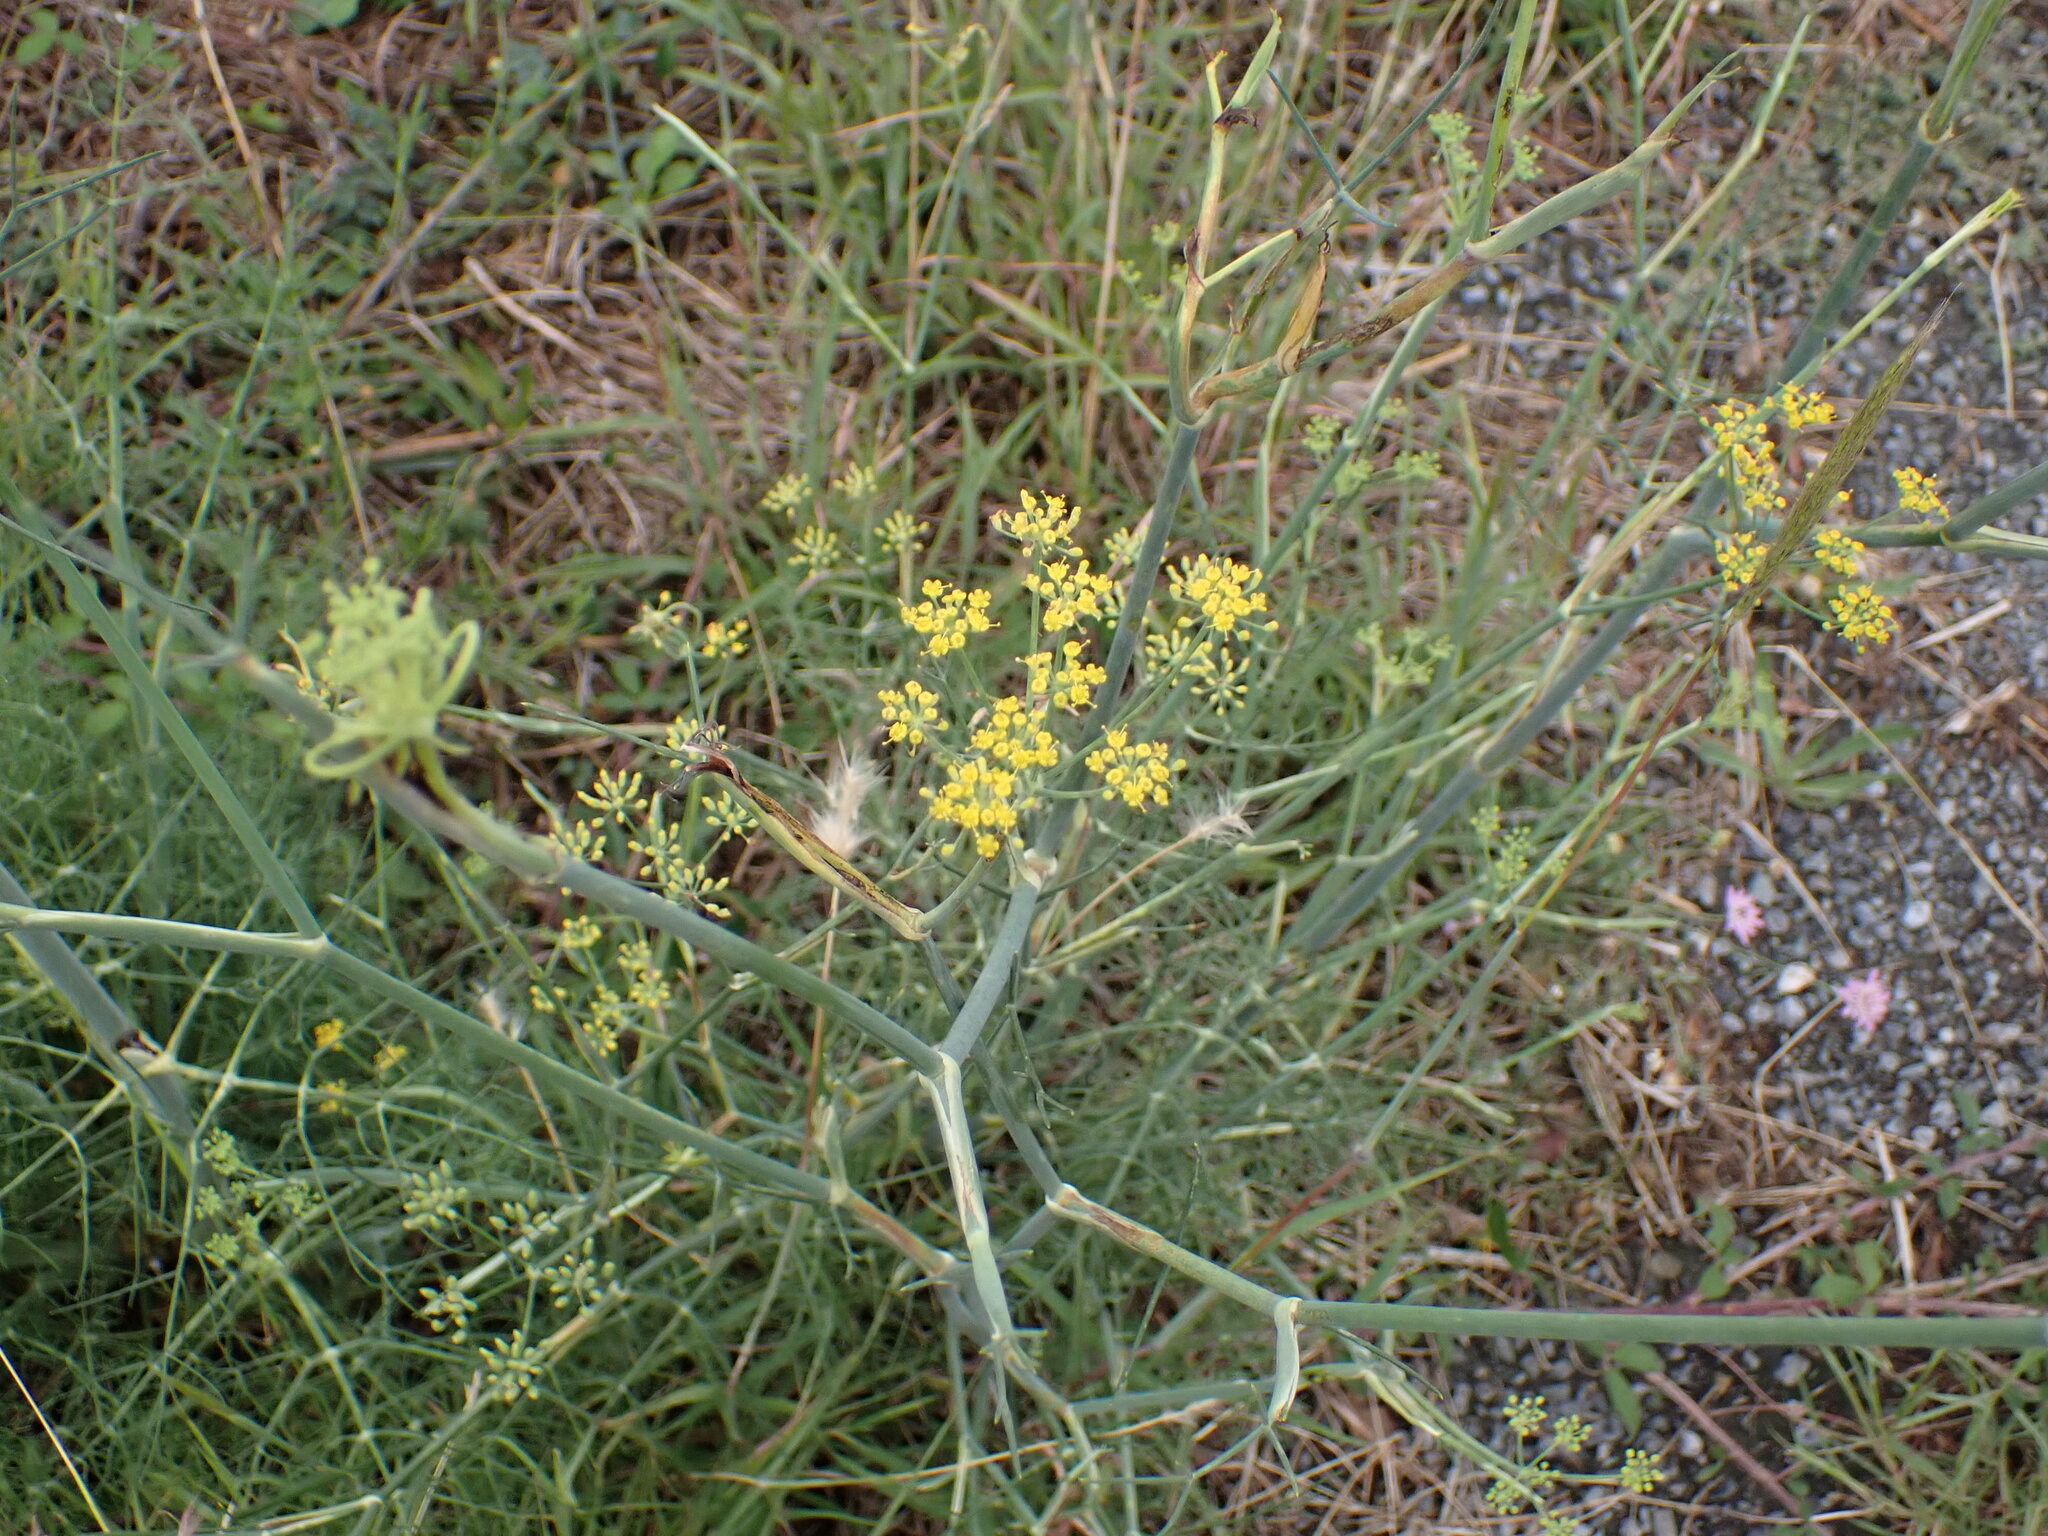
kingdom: Plantae
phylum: Tracheophyta
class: Magnoliopsida
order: Apiales
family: Apiaceae
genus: Foeniculum
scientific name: Foeniculum vulgare
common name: Fennel
